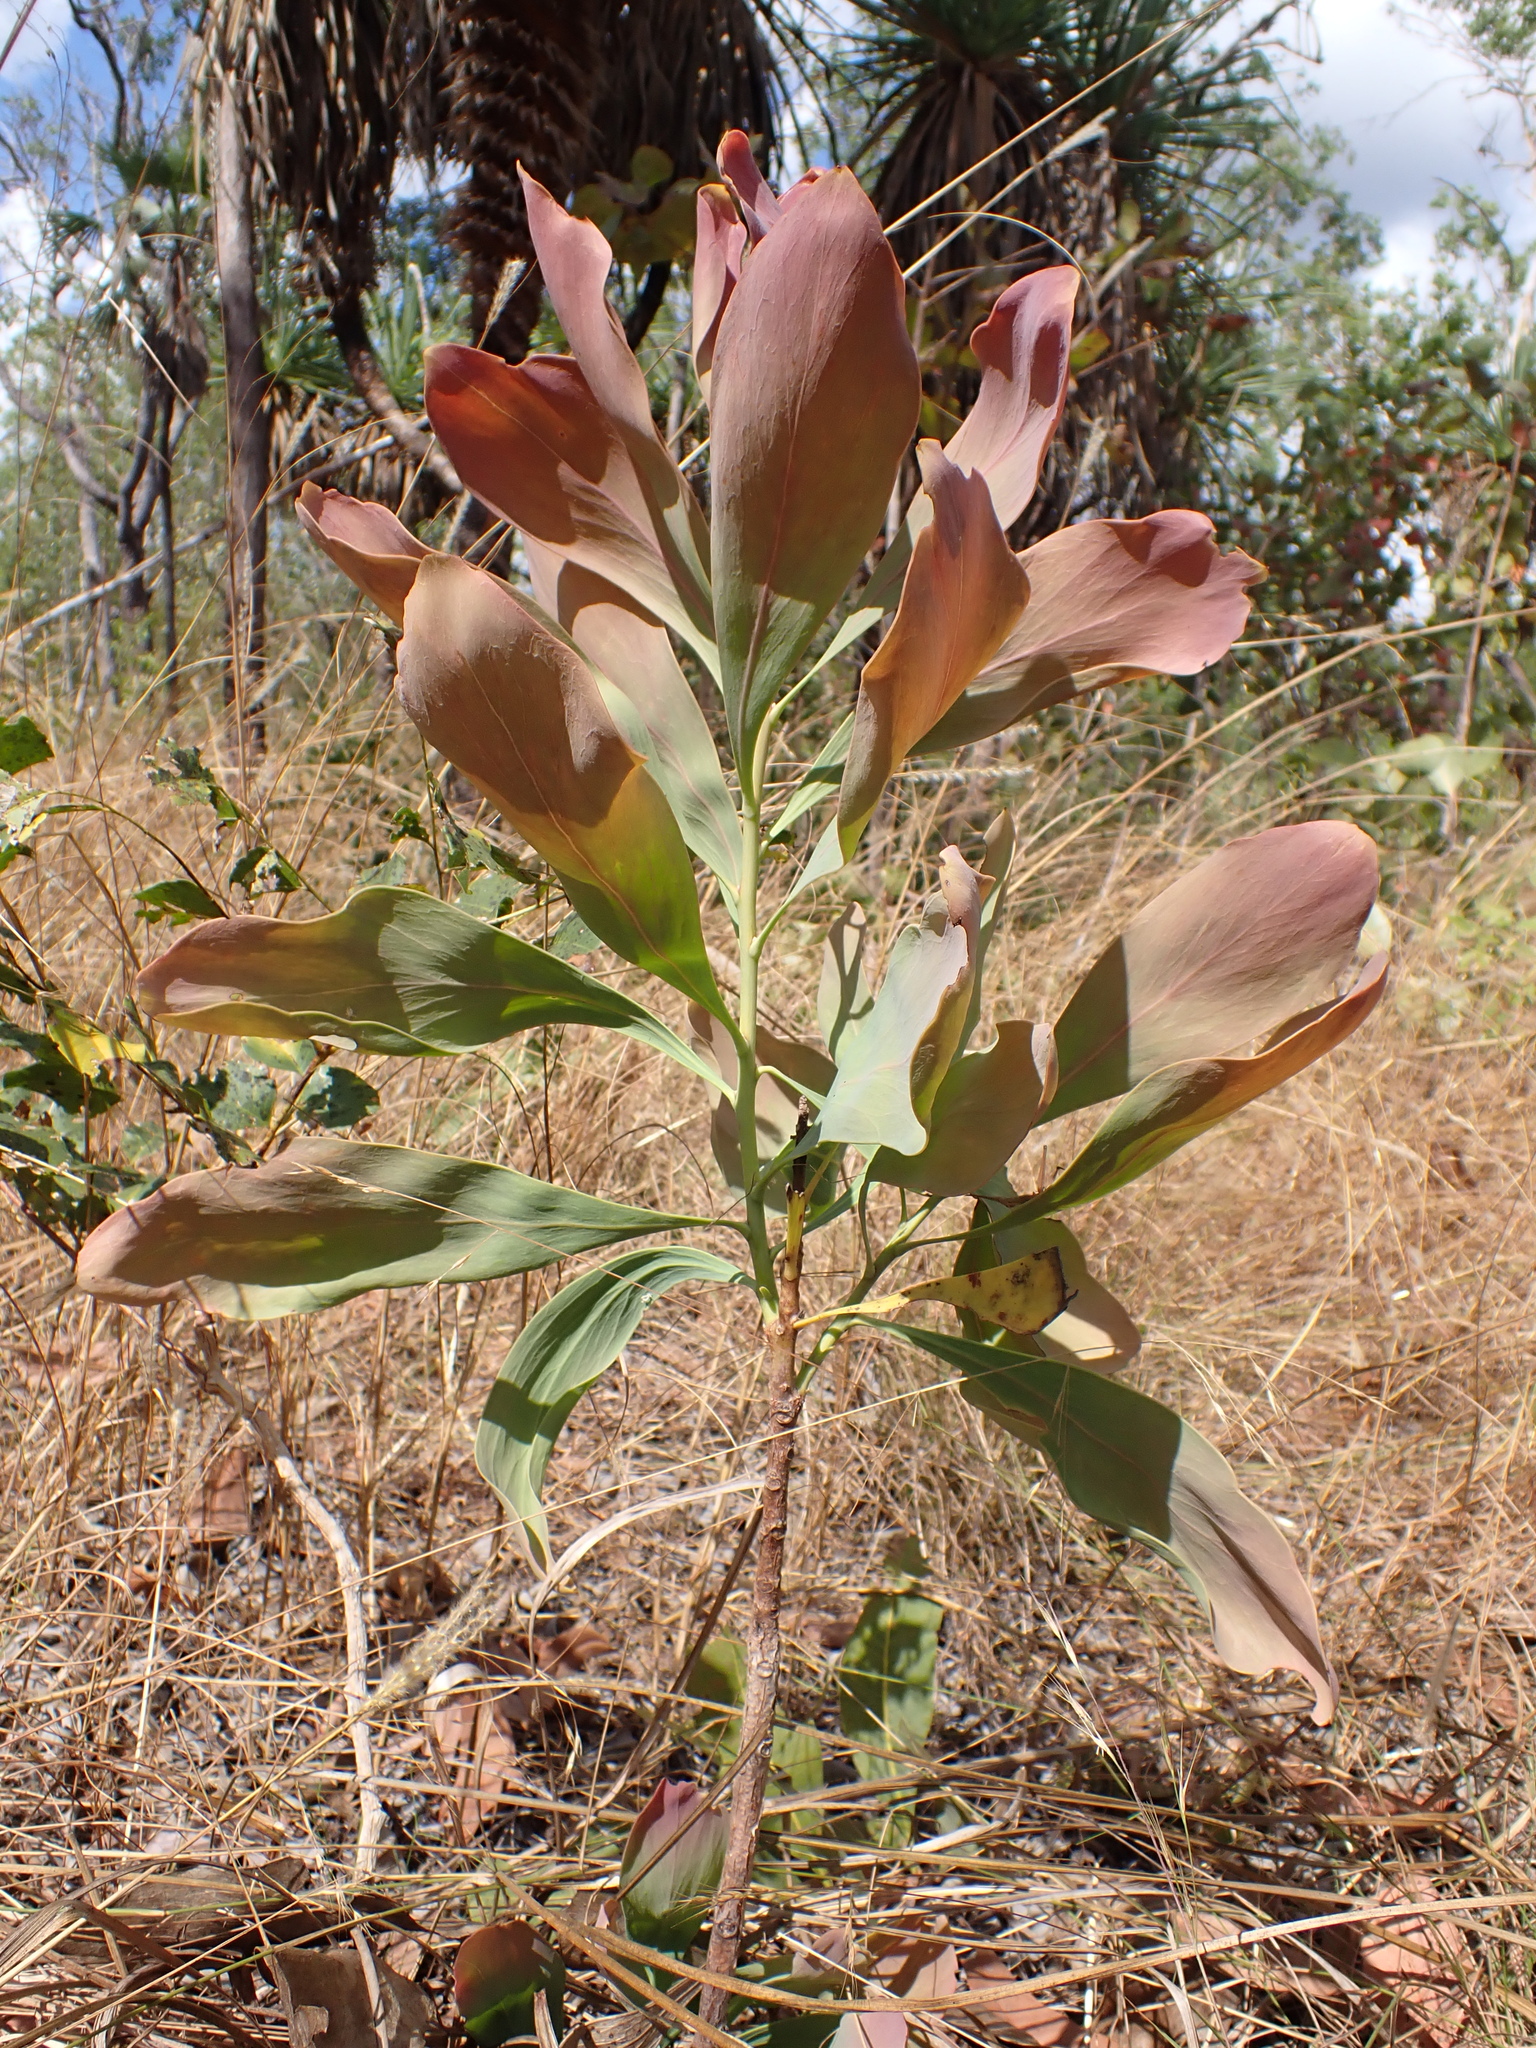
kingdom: Plantae
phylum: Tracheophyta
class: Magnoliopsida
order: Proteales
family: Proteaceae
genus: Persoonia
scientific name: Persoonia falcata
